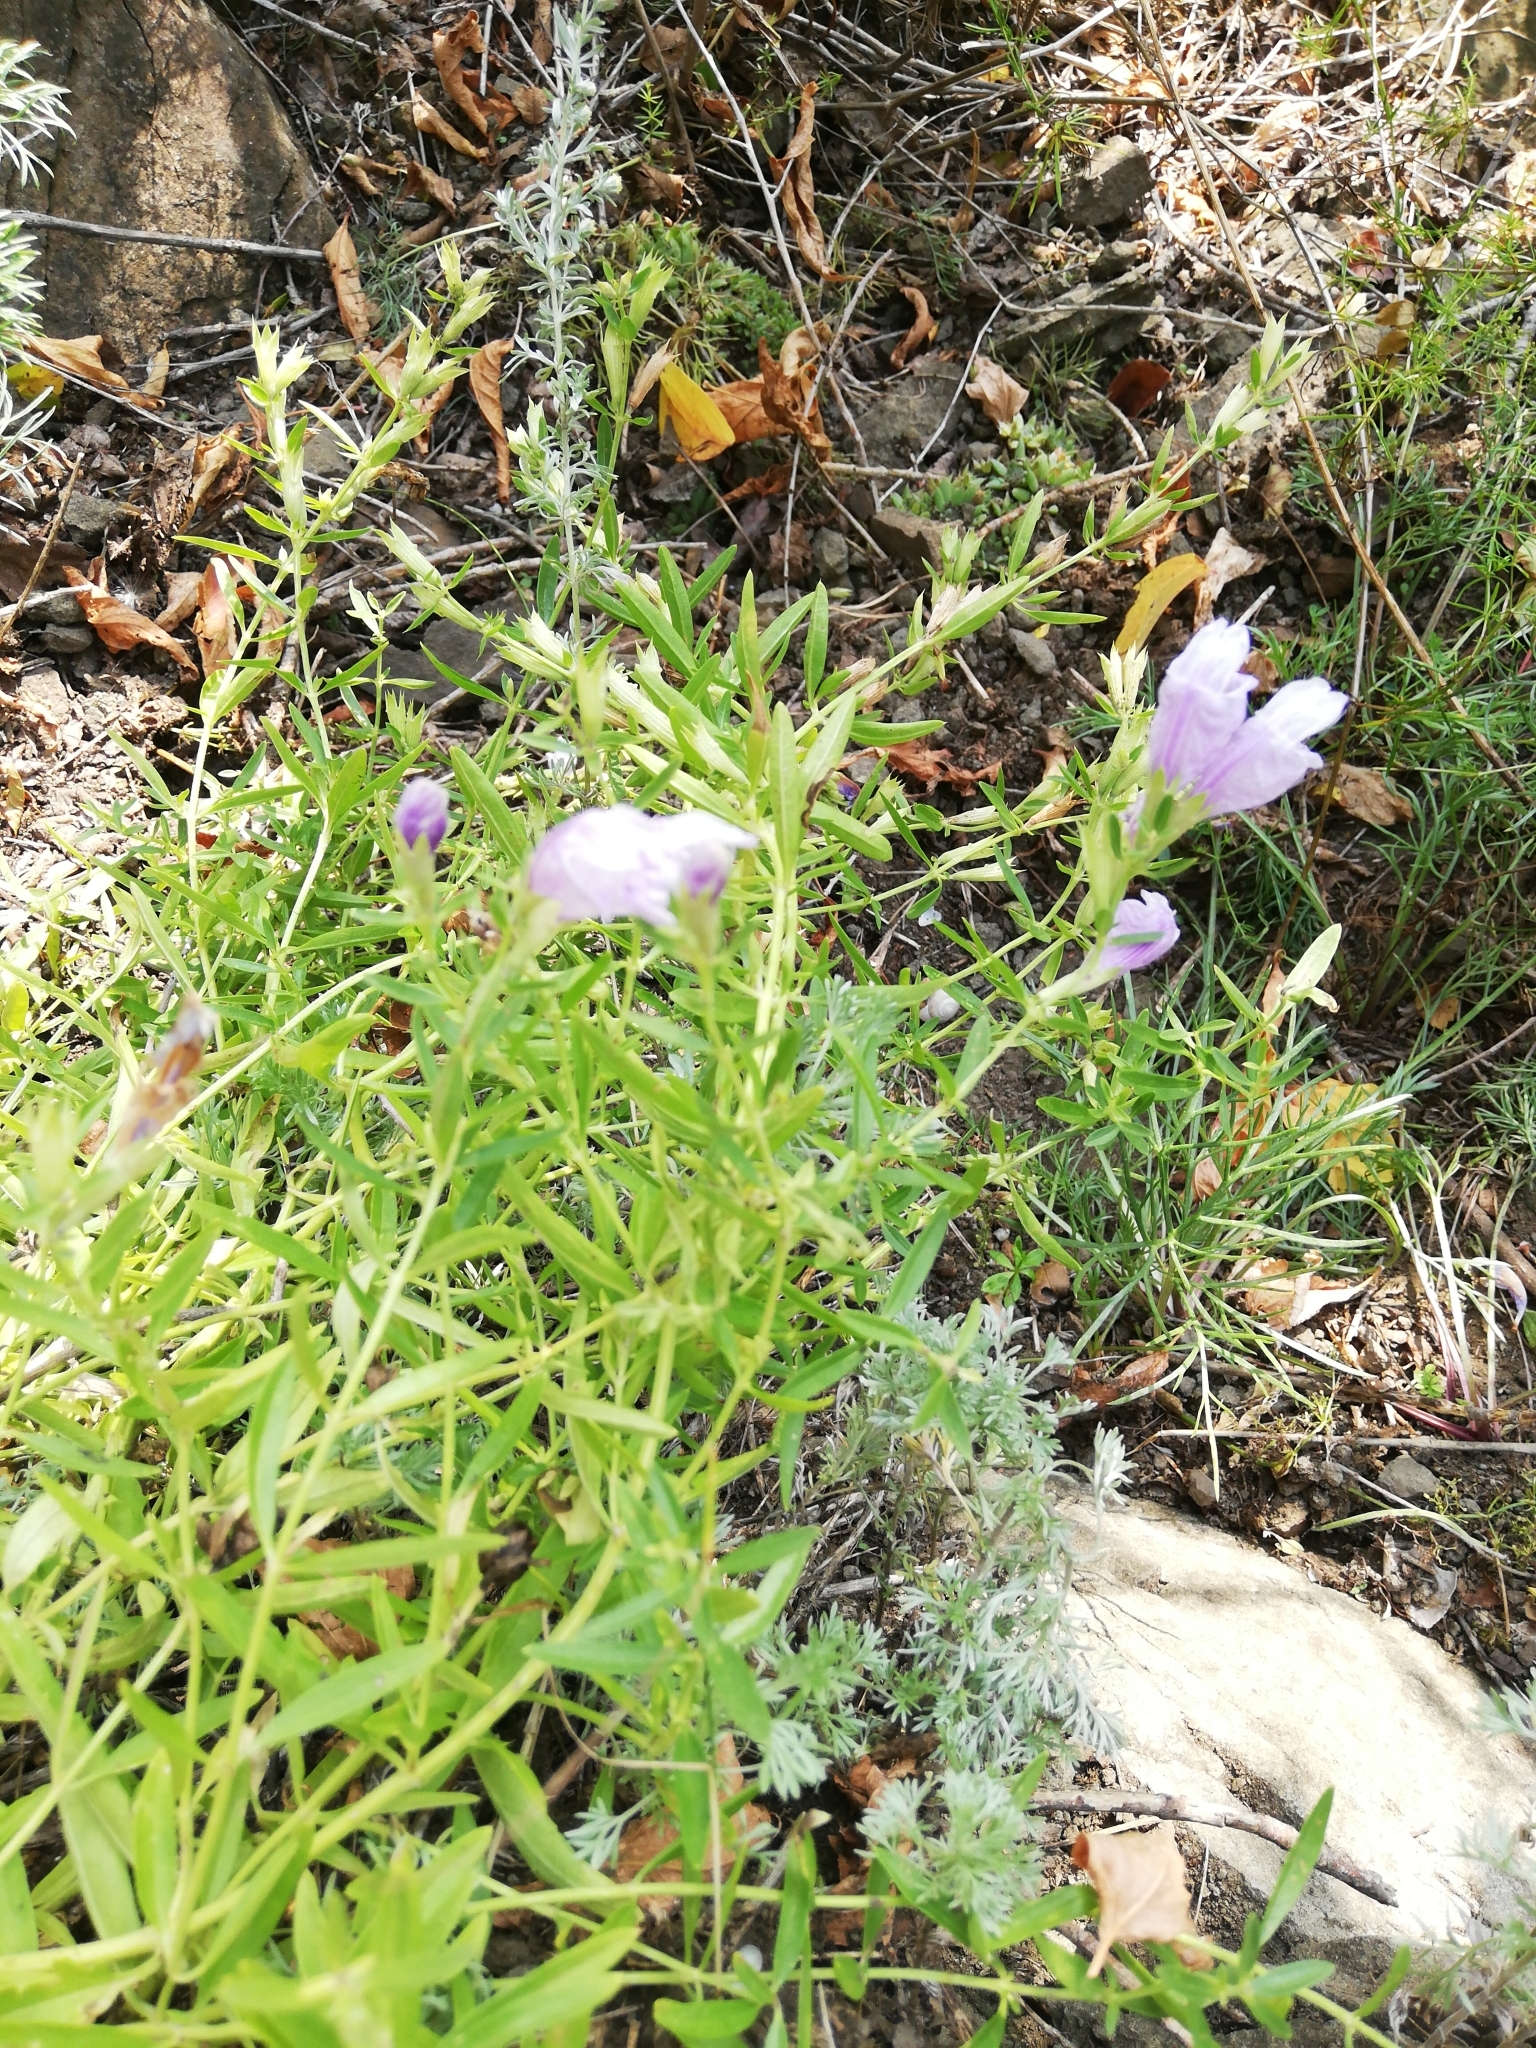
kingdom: Plantae
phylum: Tracheophyta
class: Magnoliopsida
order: Lamiales
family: Lamiaceae
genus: Dracocephalum
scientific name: Dracocephalum peregrinum
